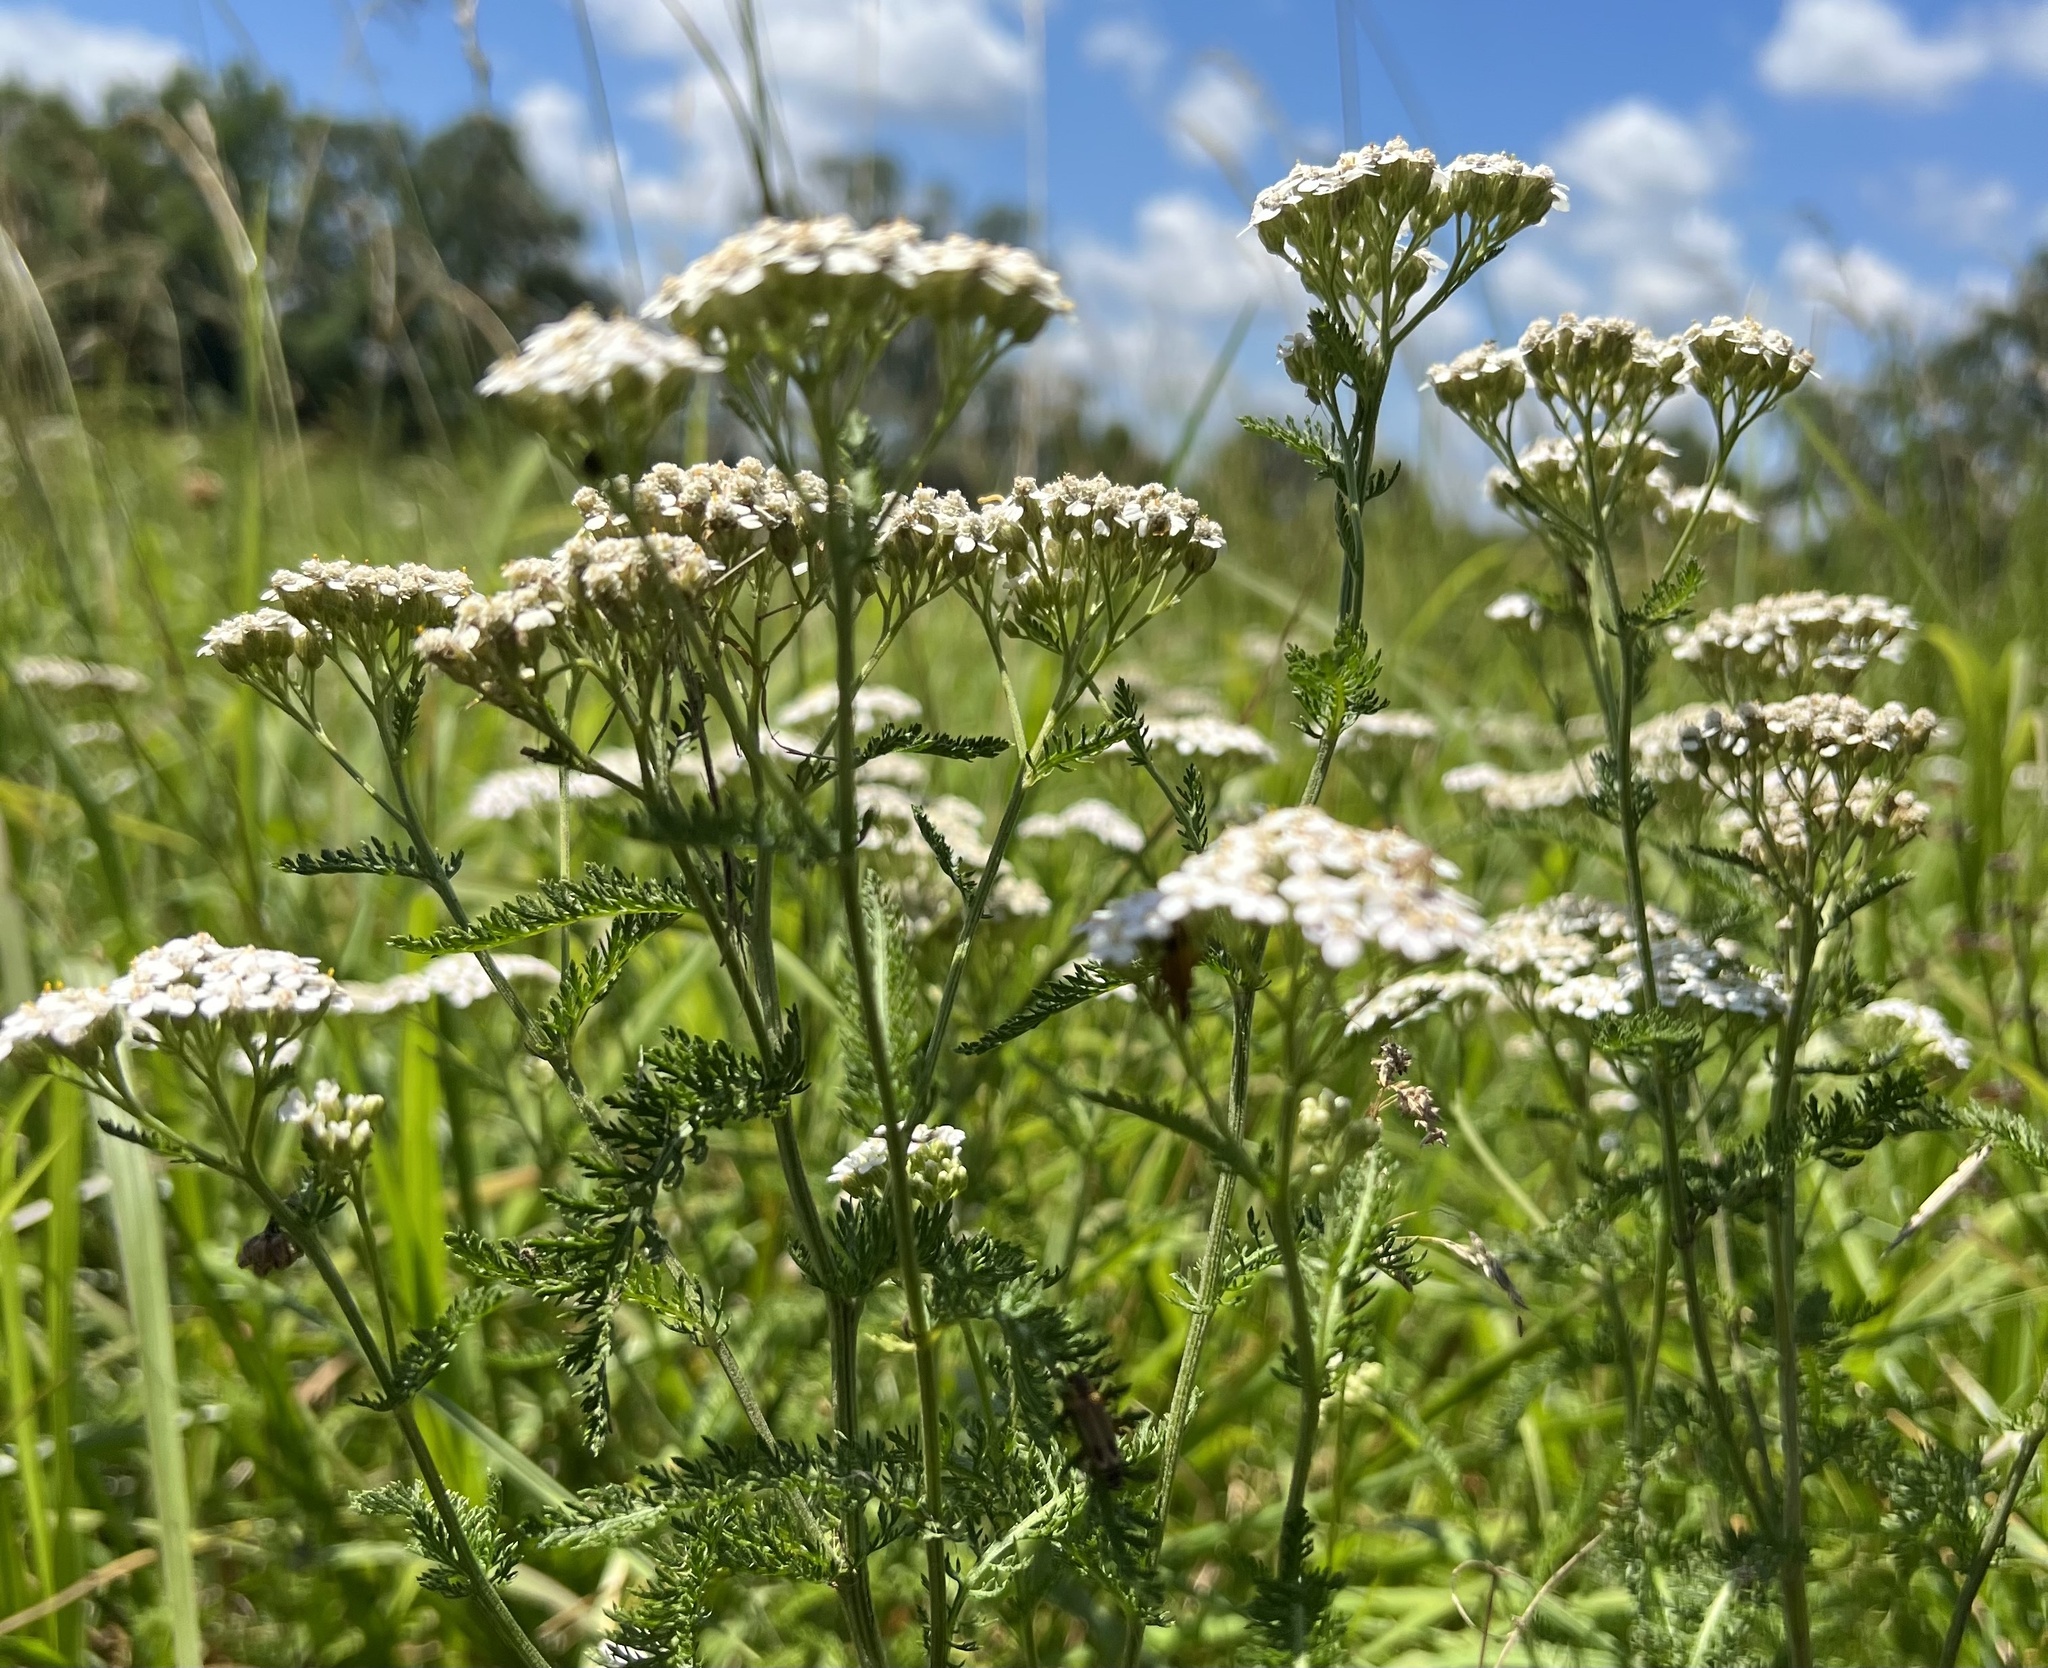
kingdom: Plantae
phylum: Tracheophyta
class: Magnoliopsida
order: Asterales
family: Asteraceae
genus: Achillea
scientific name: Achillea millefolium
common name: Yarrow
